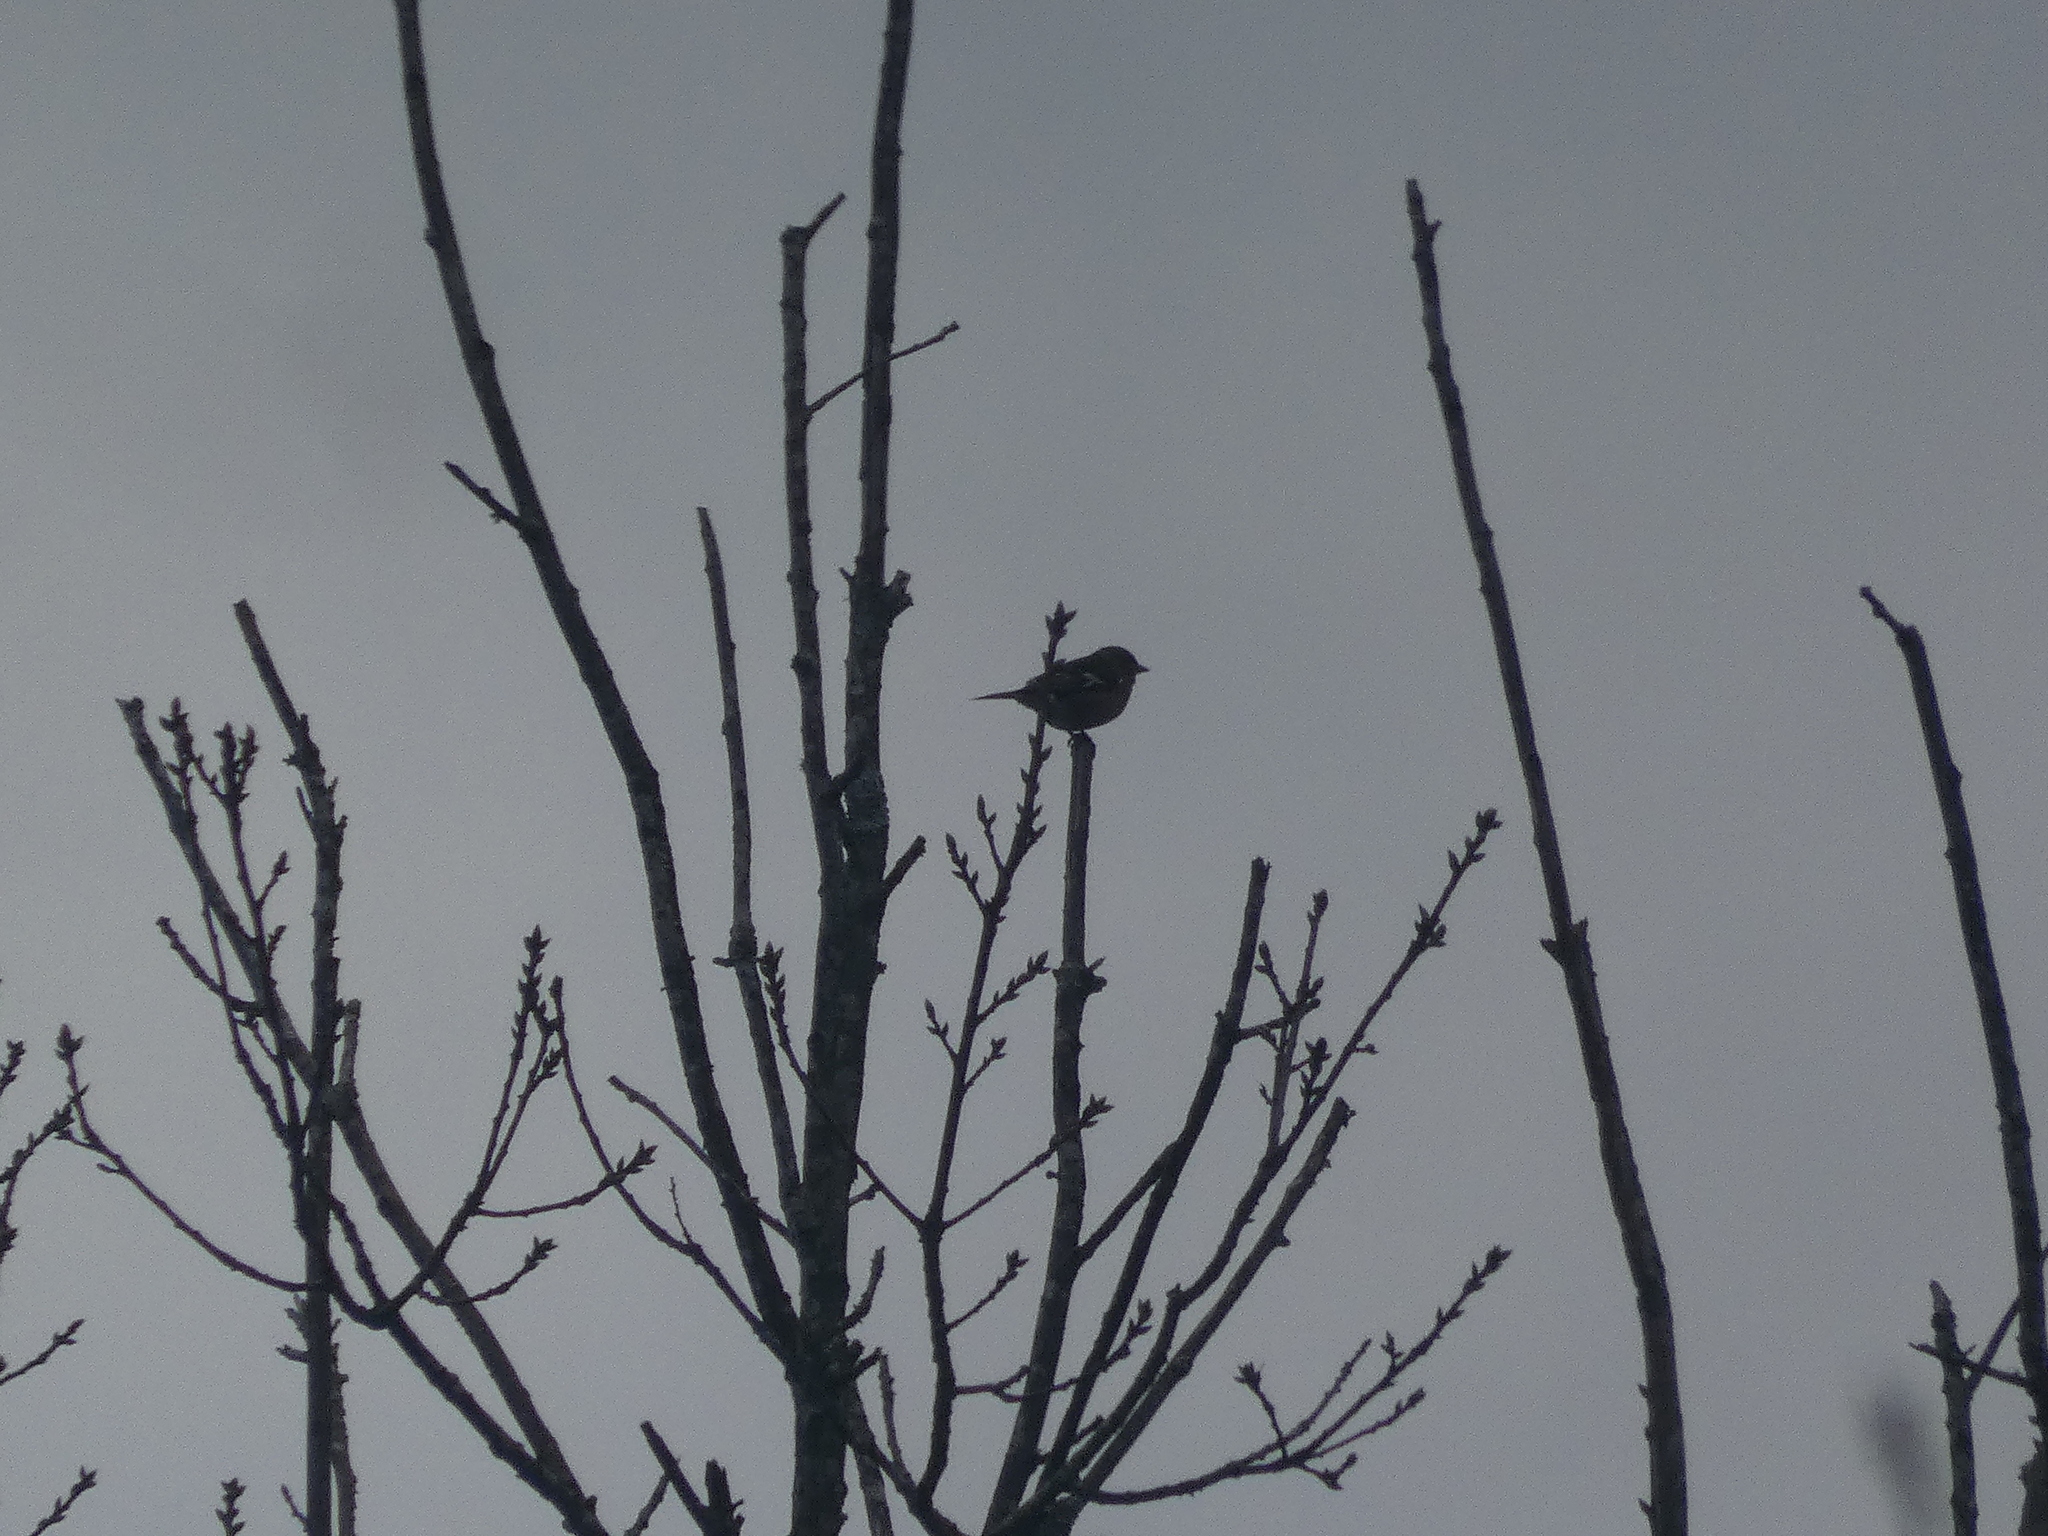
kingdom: Animalia
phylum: Chordata
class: Aves
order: Passeriformes
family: Fringillidae
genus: Fringilla
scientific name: Fringilla coelebs
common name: Common chaffinch
